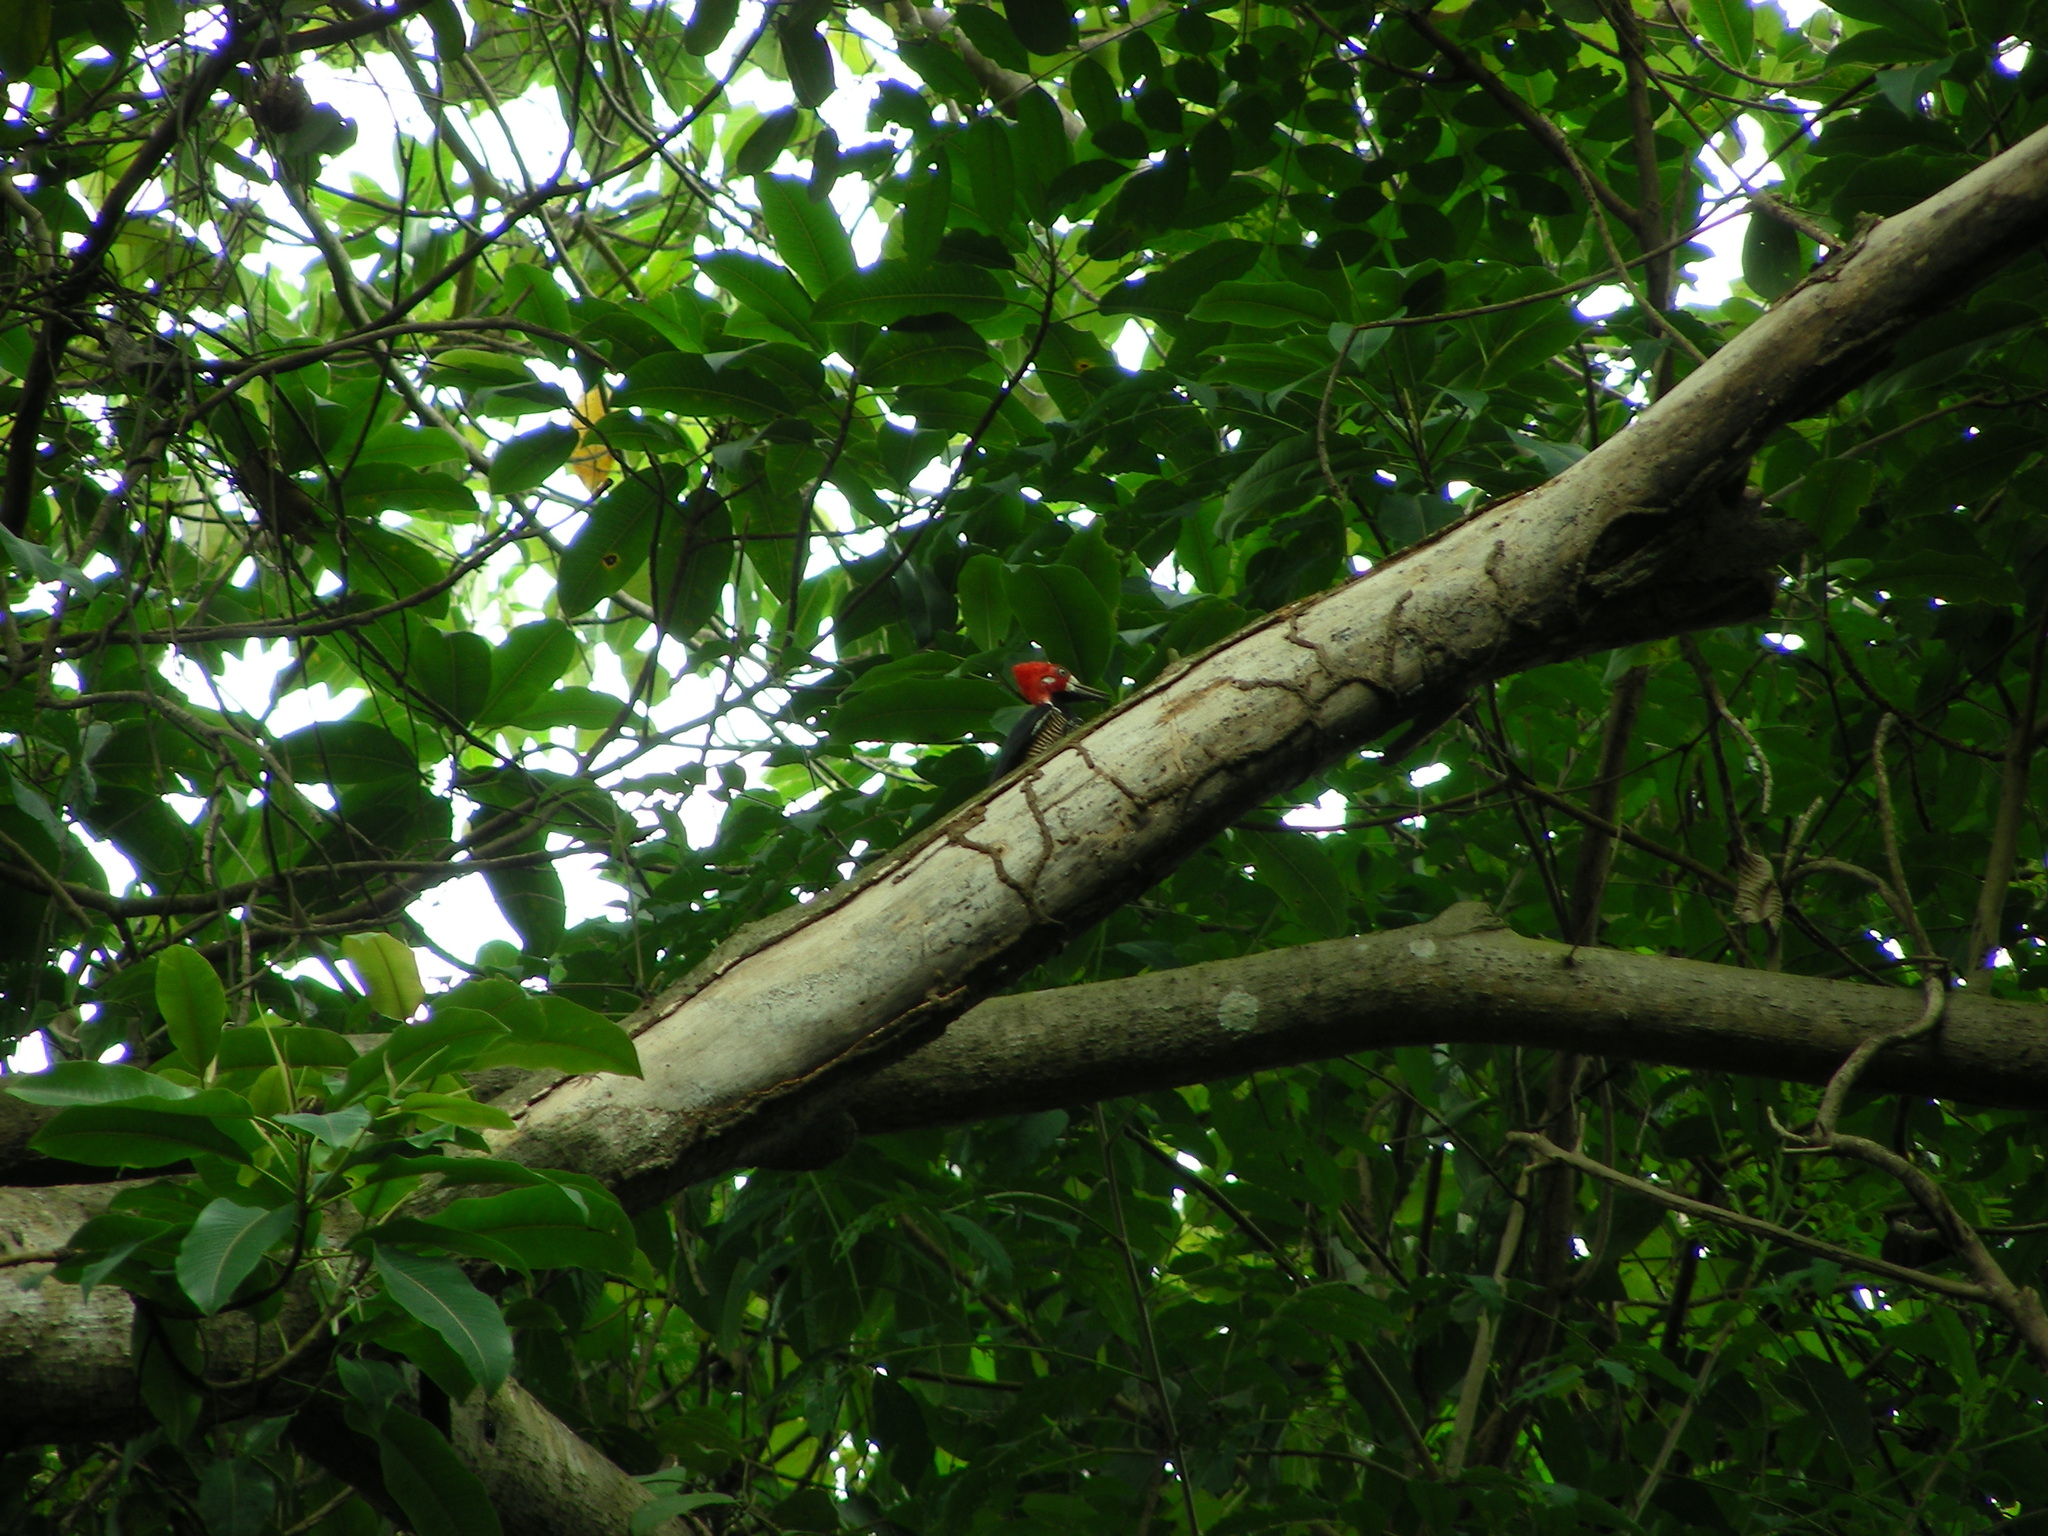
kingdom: Animalia
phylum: Chordata
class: Aves
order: Piciformes
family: Picidae
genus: Campephilus
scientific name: Campephilus melanoleucos
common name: Crimson-crested woodpecker
